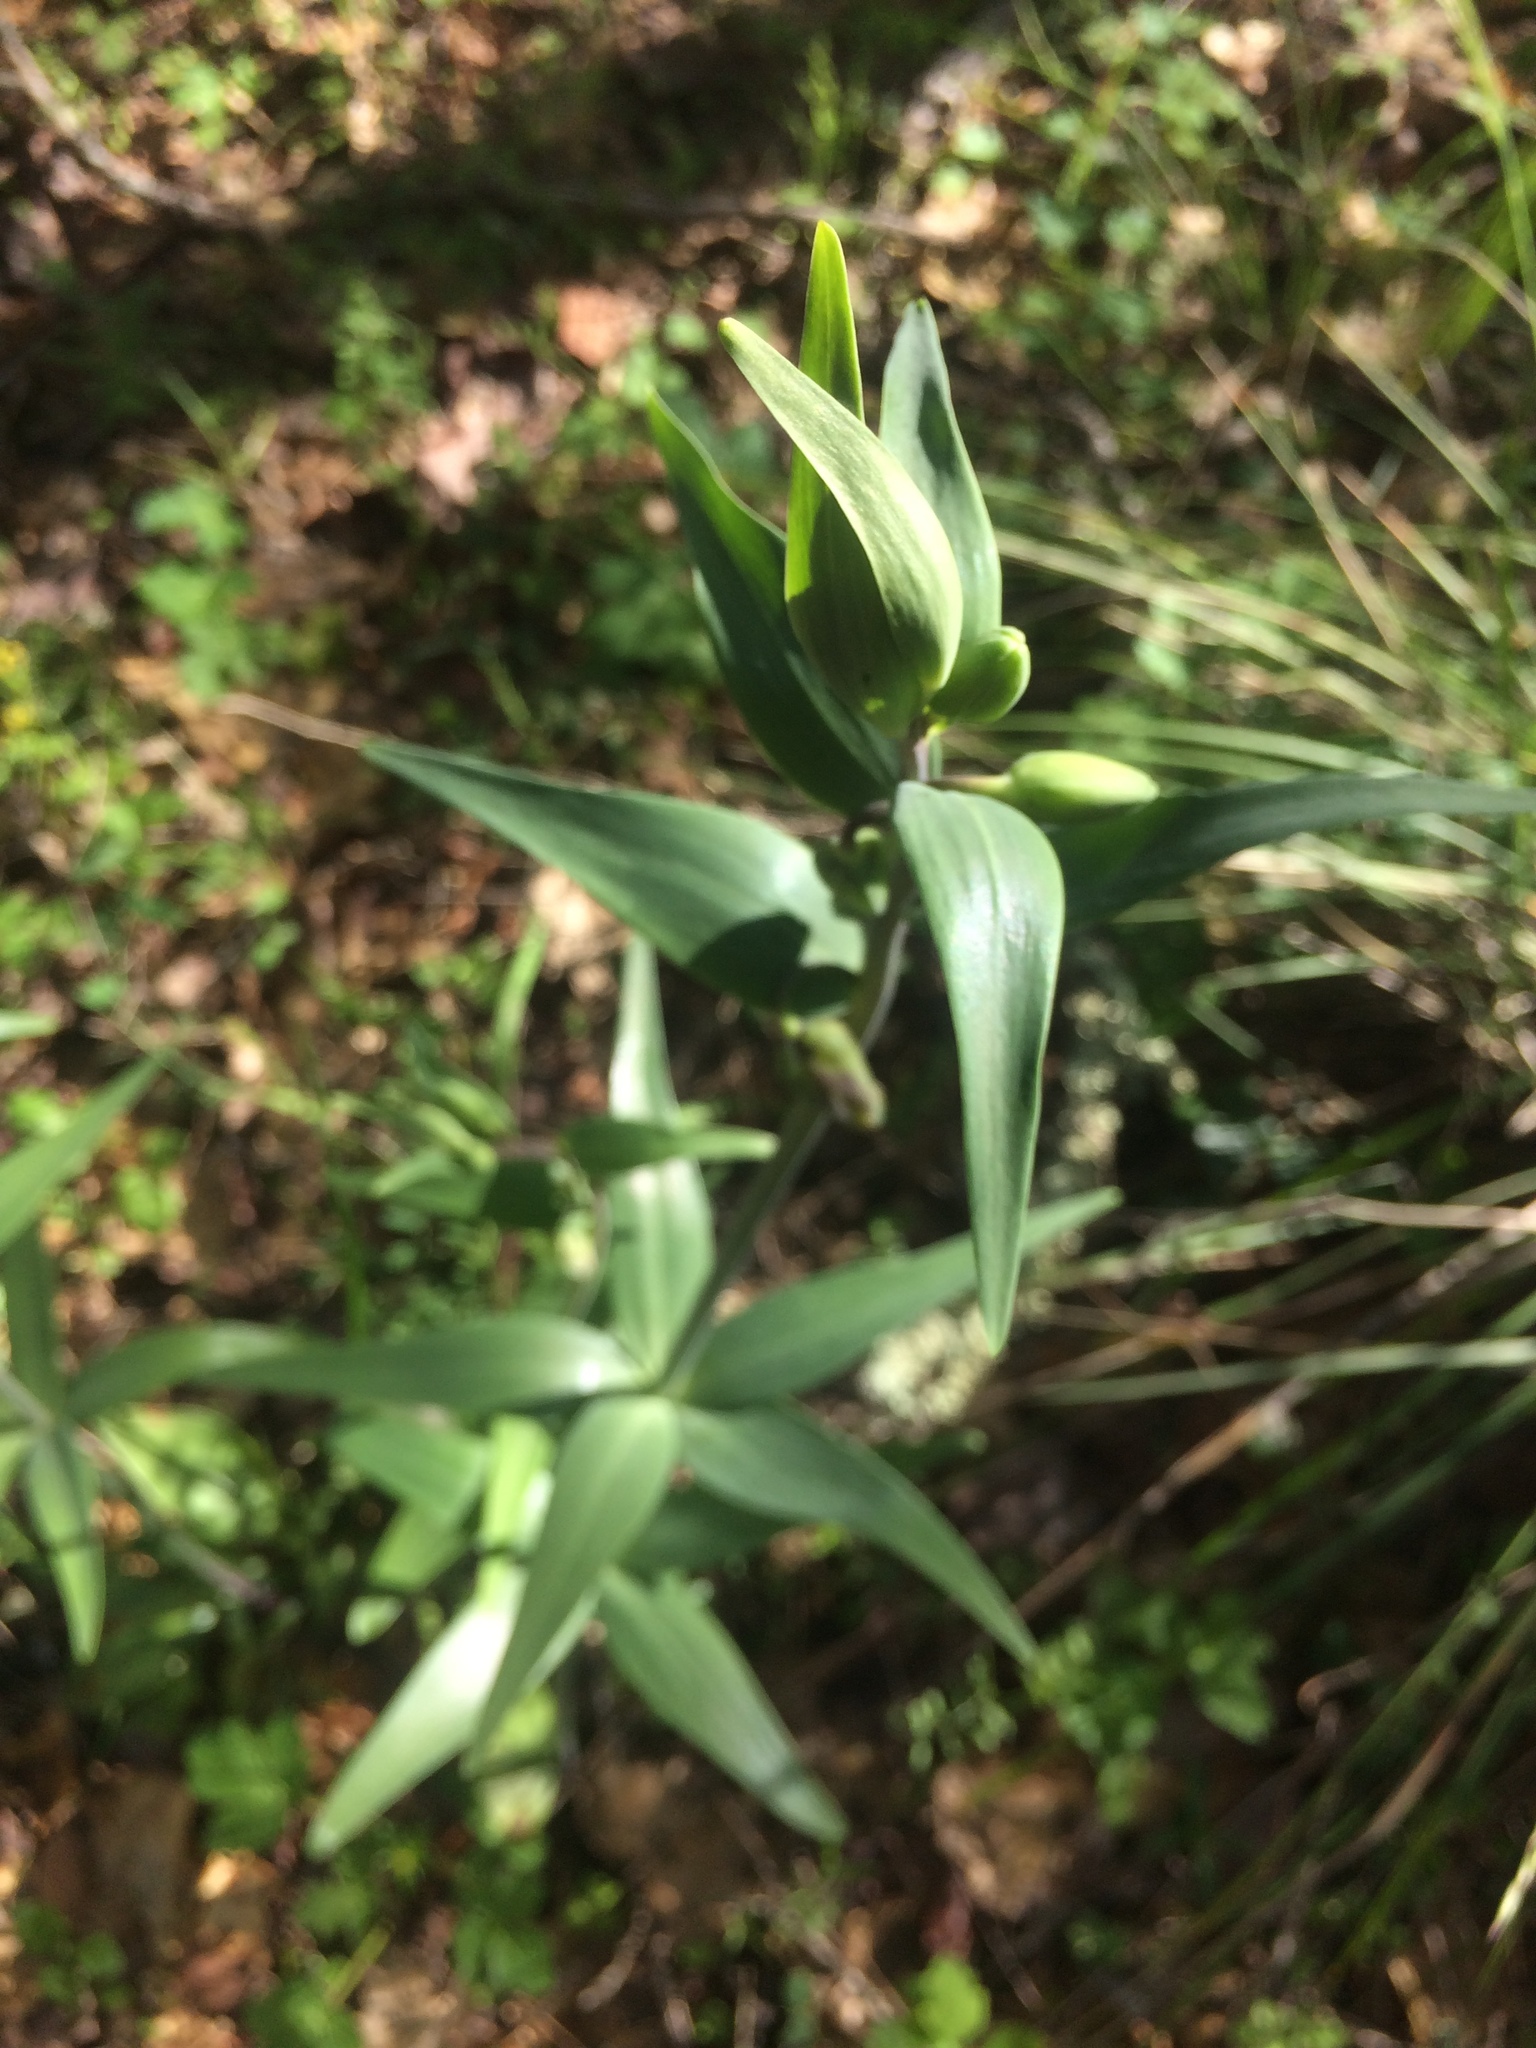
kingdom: Plantae
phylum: Tracheophyta
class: Liliopsida
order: Liliales
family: Liliaceae
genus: Fritillaria
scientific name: Fritillaria affinis
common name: Ojai fritillary
